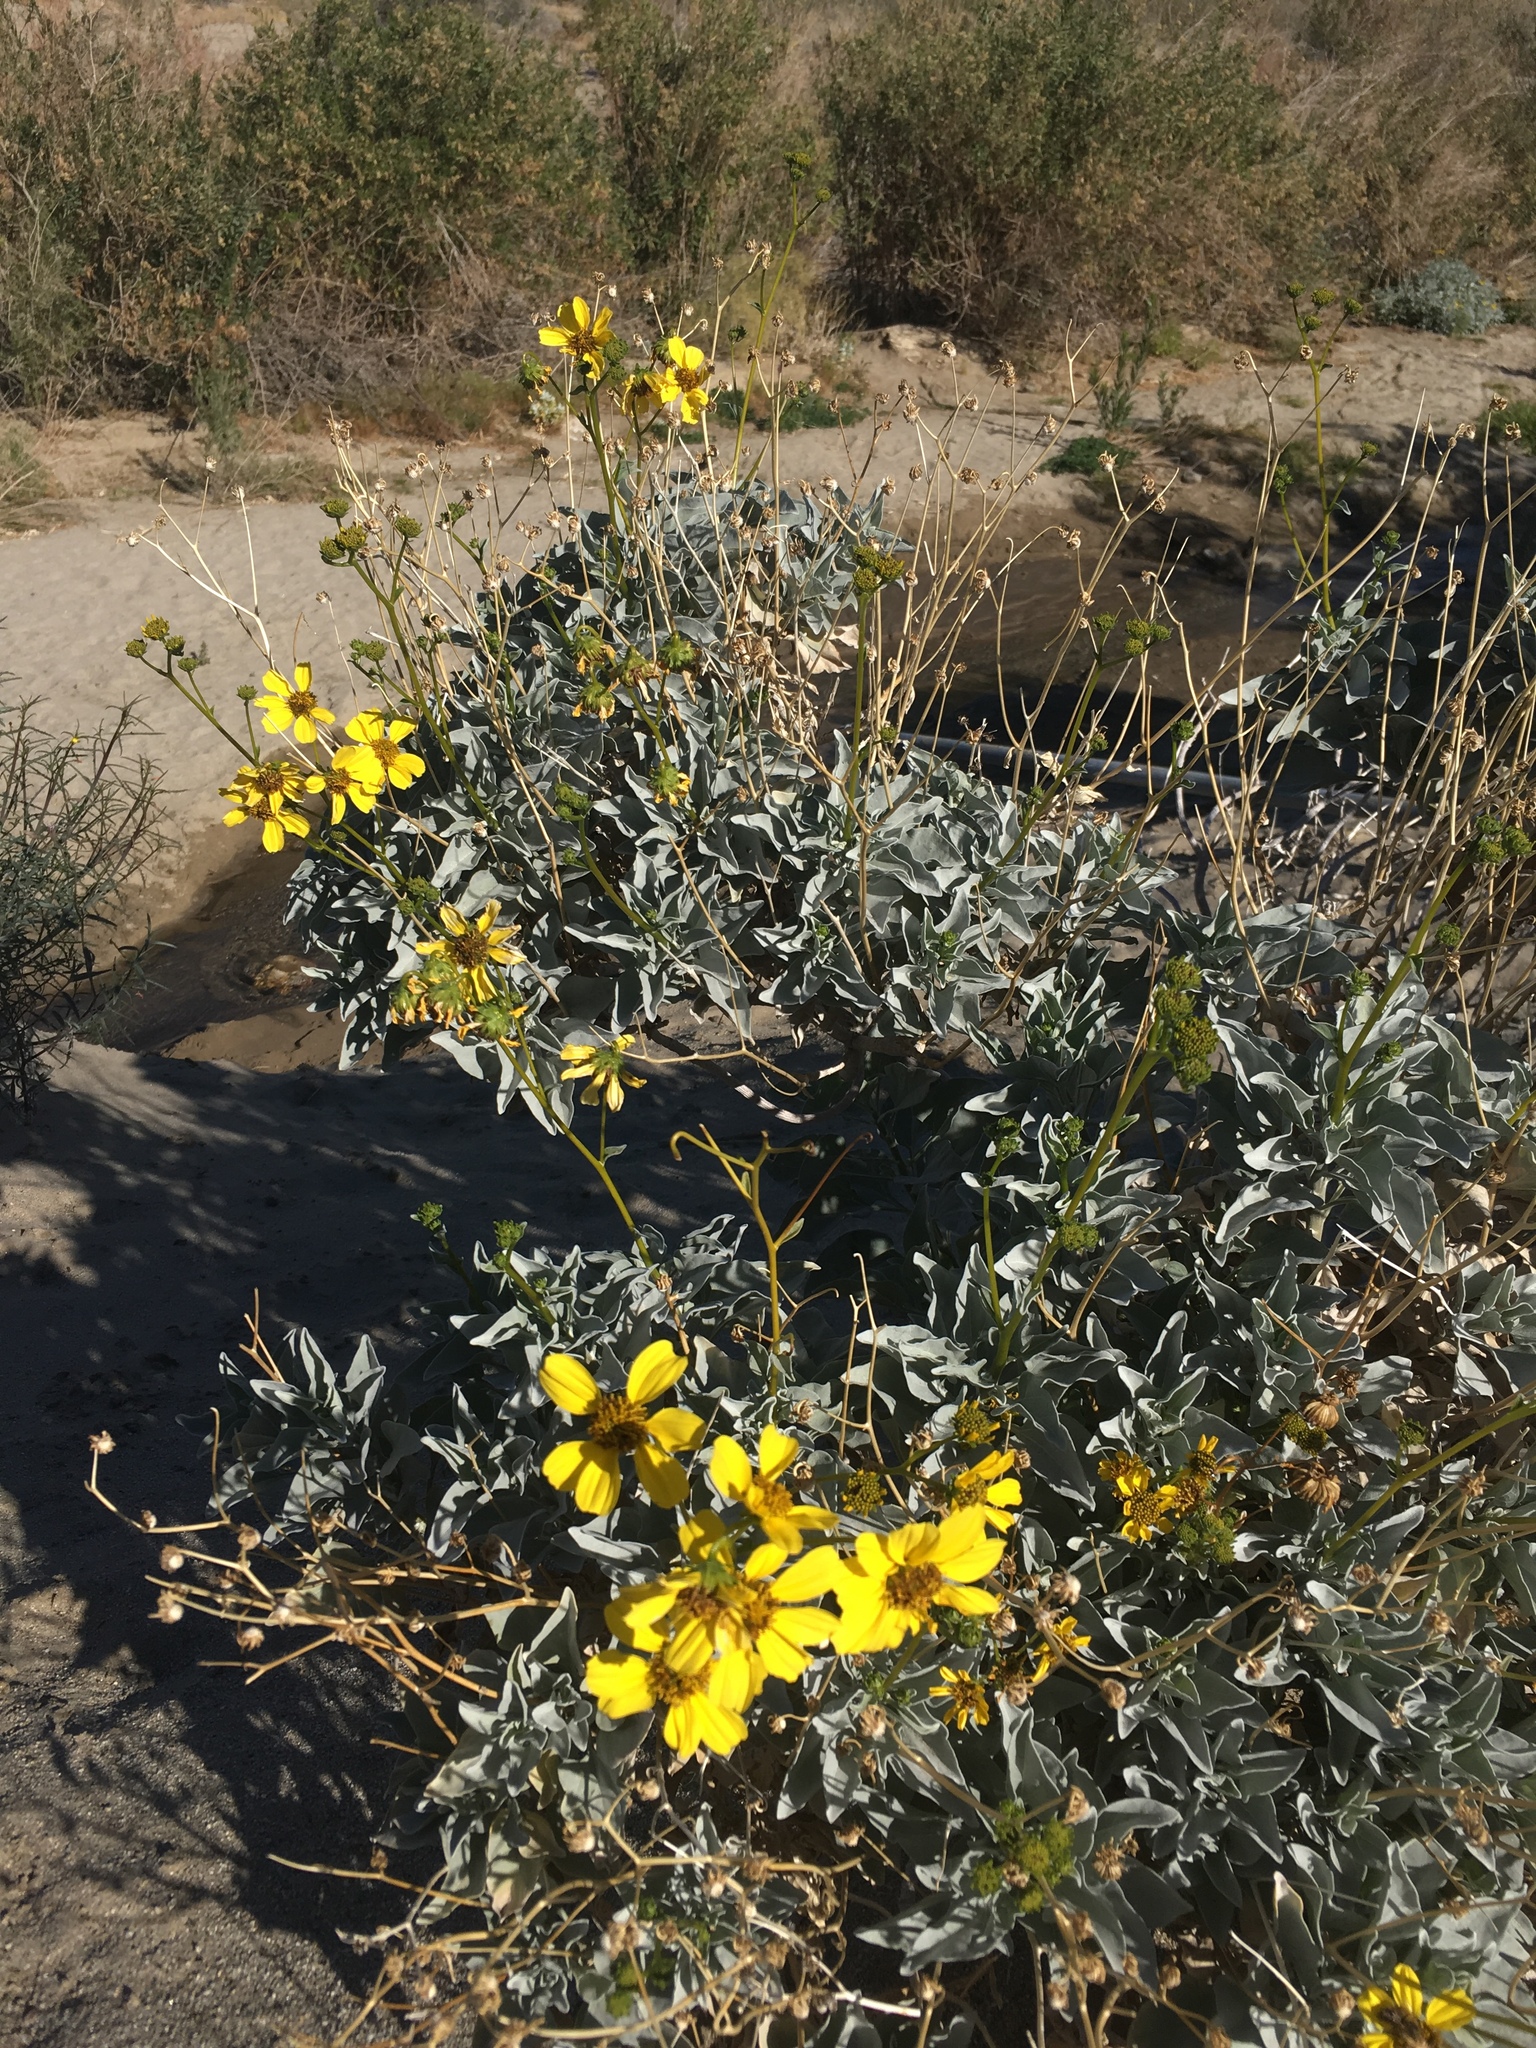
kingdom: Plantae
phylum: Tracheophyta
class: Magnoliopsida
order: Asterales
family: Asteraceae
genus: Encelia
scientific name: Encelia farinosa
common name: Brittlebush
